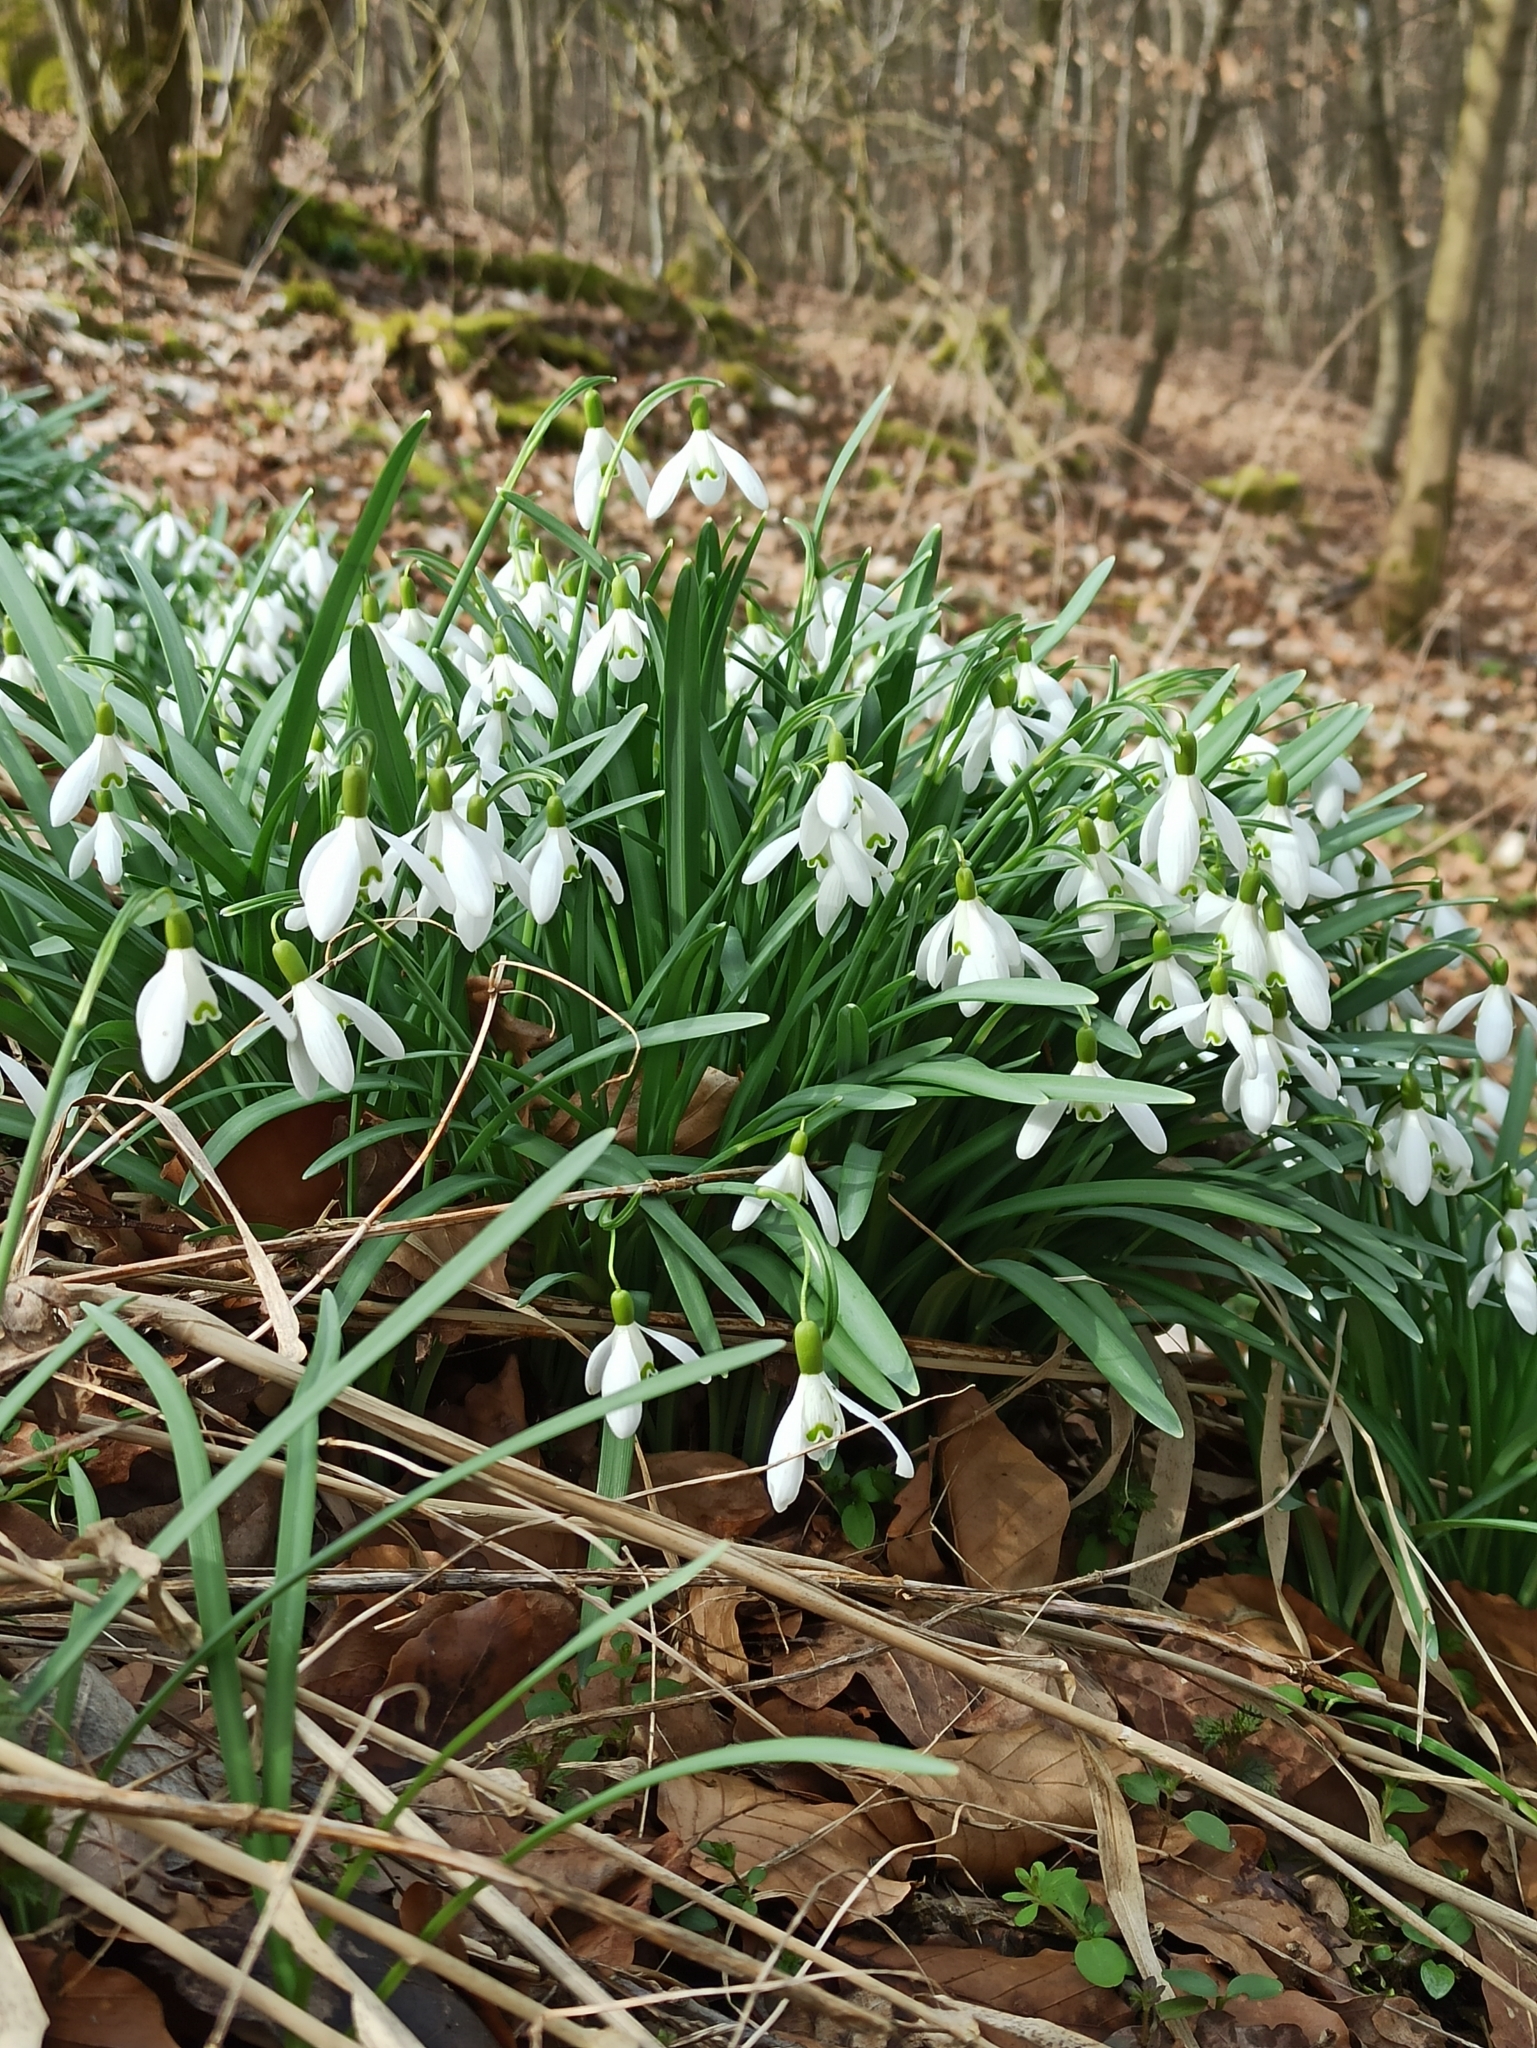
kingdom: Plantae
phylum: Tracheophyta
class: Liliopsida
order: Asparagales
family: Amaryllidaceae
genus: Galanthus
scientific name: Galanthus nivalis
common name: Snowdrop
